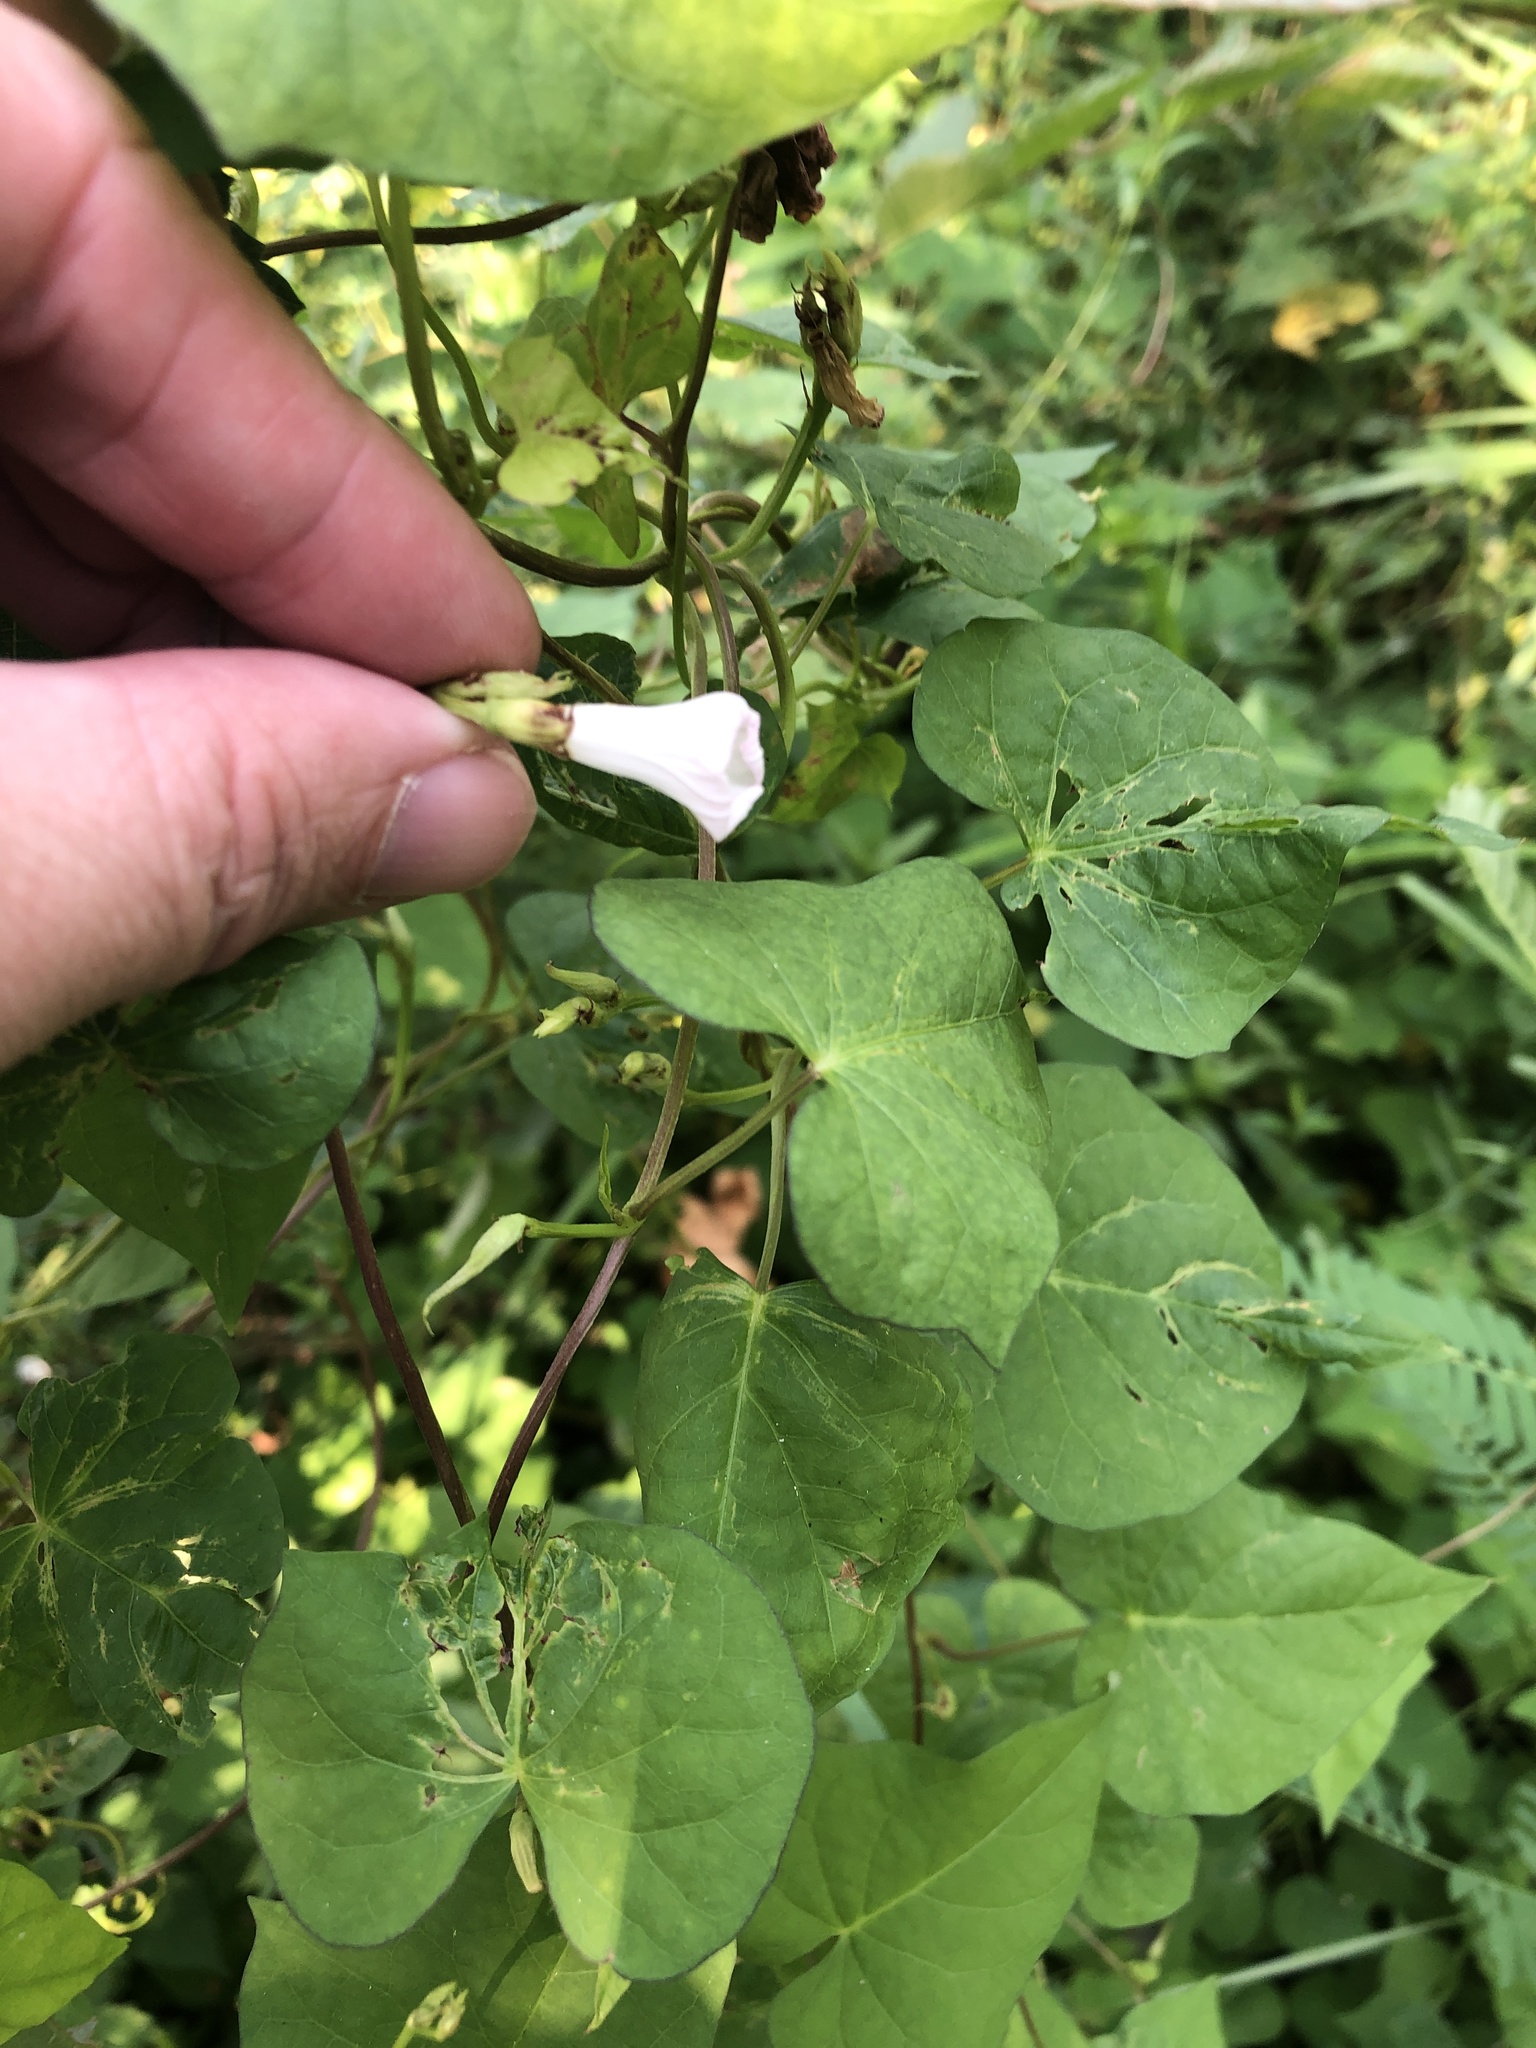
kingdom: Plantae
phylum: Tracheophyta
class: Magnoliopsida
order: Solanales
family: Convolvulaceae
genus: Ipomoea
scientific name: Ipomoea lacunosa
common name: White morning-glory
